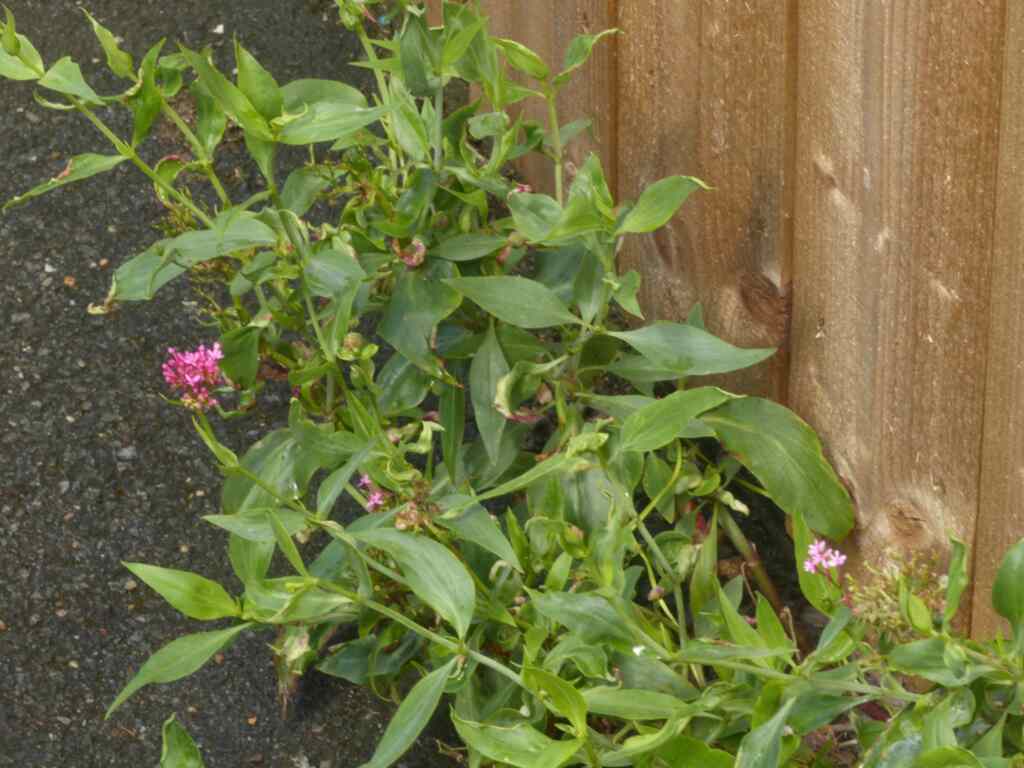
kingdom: Plantae
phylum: Tracheophyta
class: Magnoliopsida
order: Dipsacales
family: Caprifoliaceae
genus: Centranthus
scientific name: Centranthus ruber
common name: Red valerian
